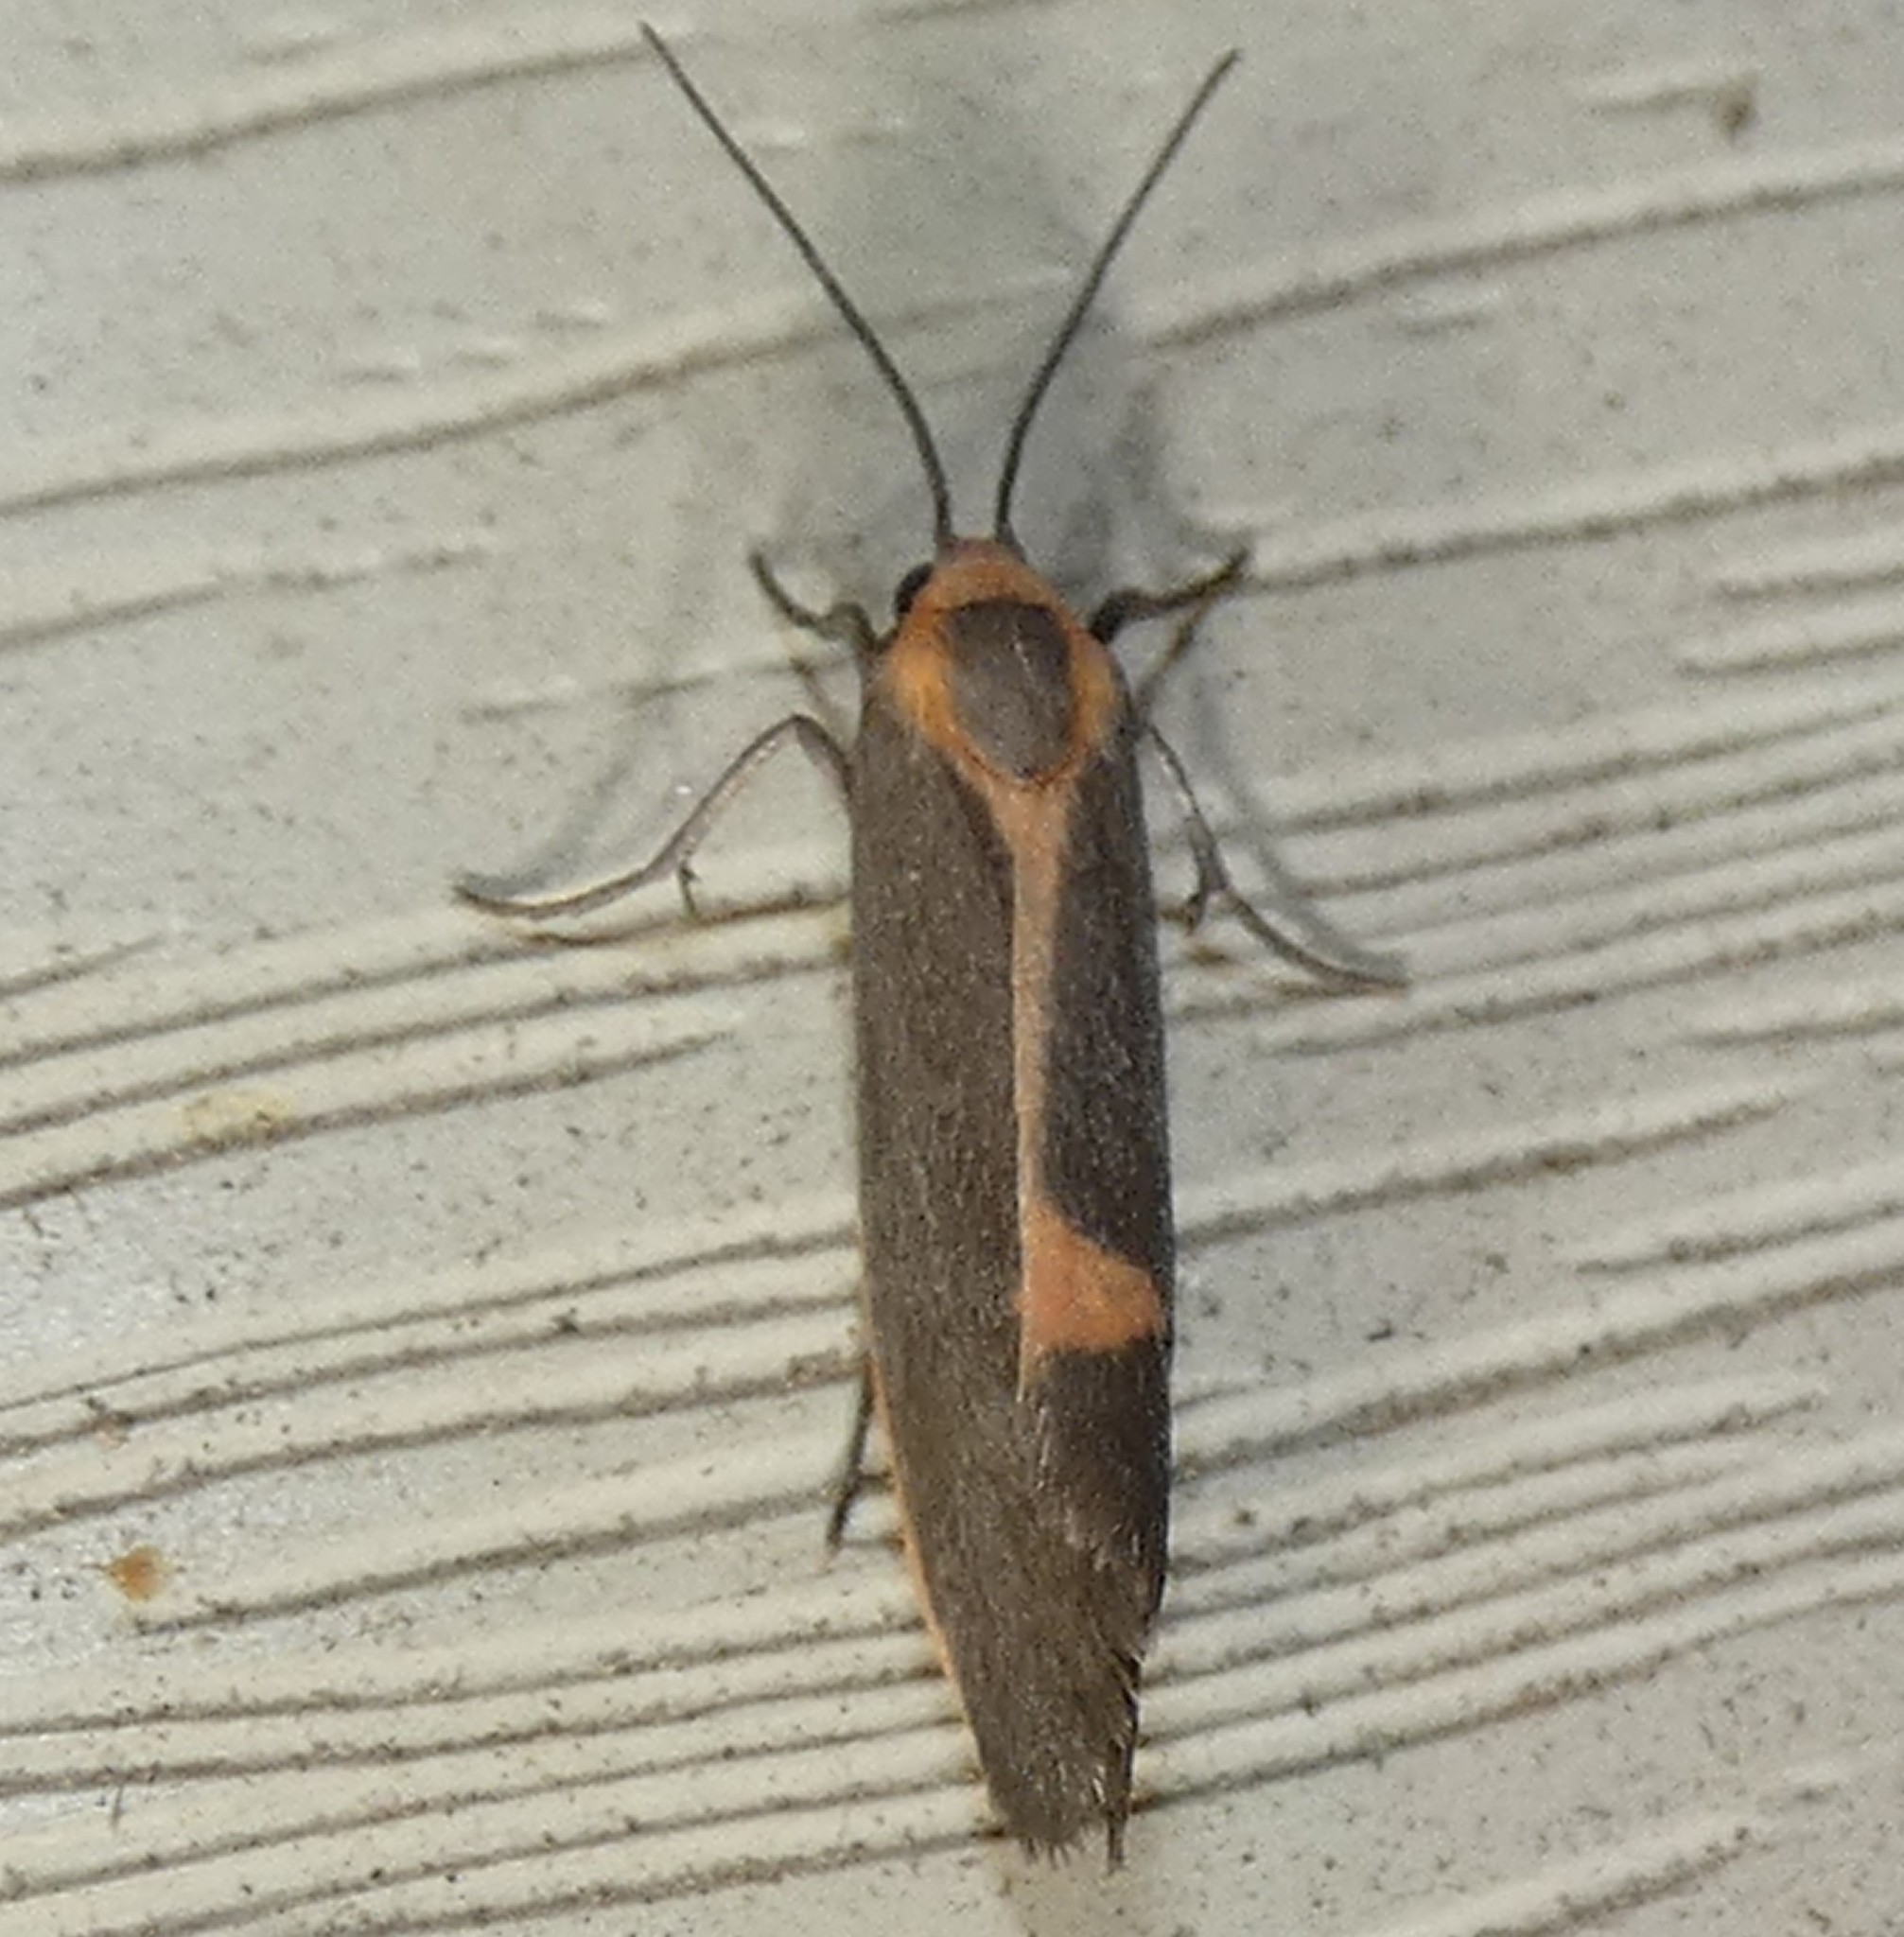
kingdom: Animalia
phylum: Arthropoda
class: Insecta
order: Lepidoptera
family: Erebidae
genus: Cisthene
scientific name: Cisthene plumbea
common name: Lead colored lichen moth
